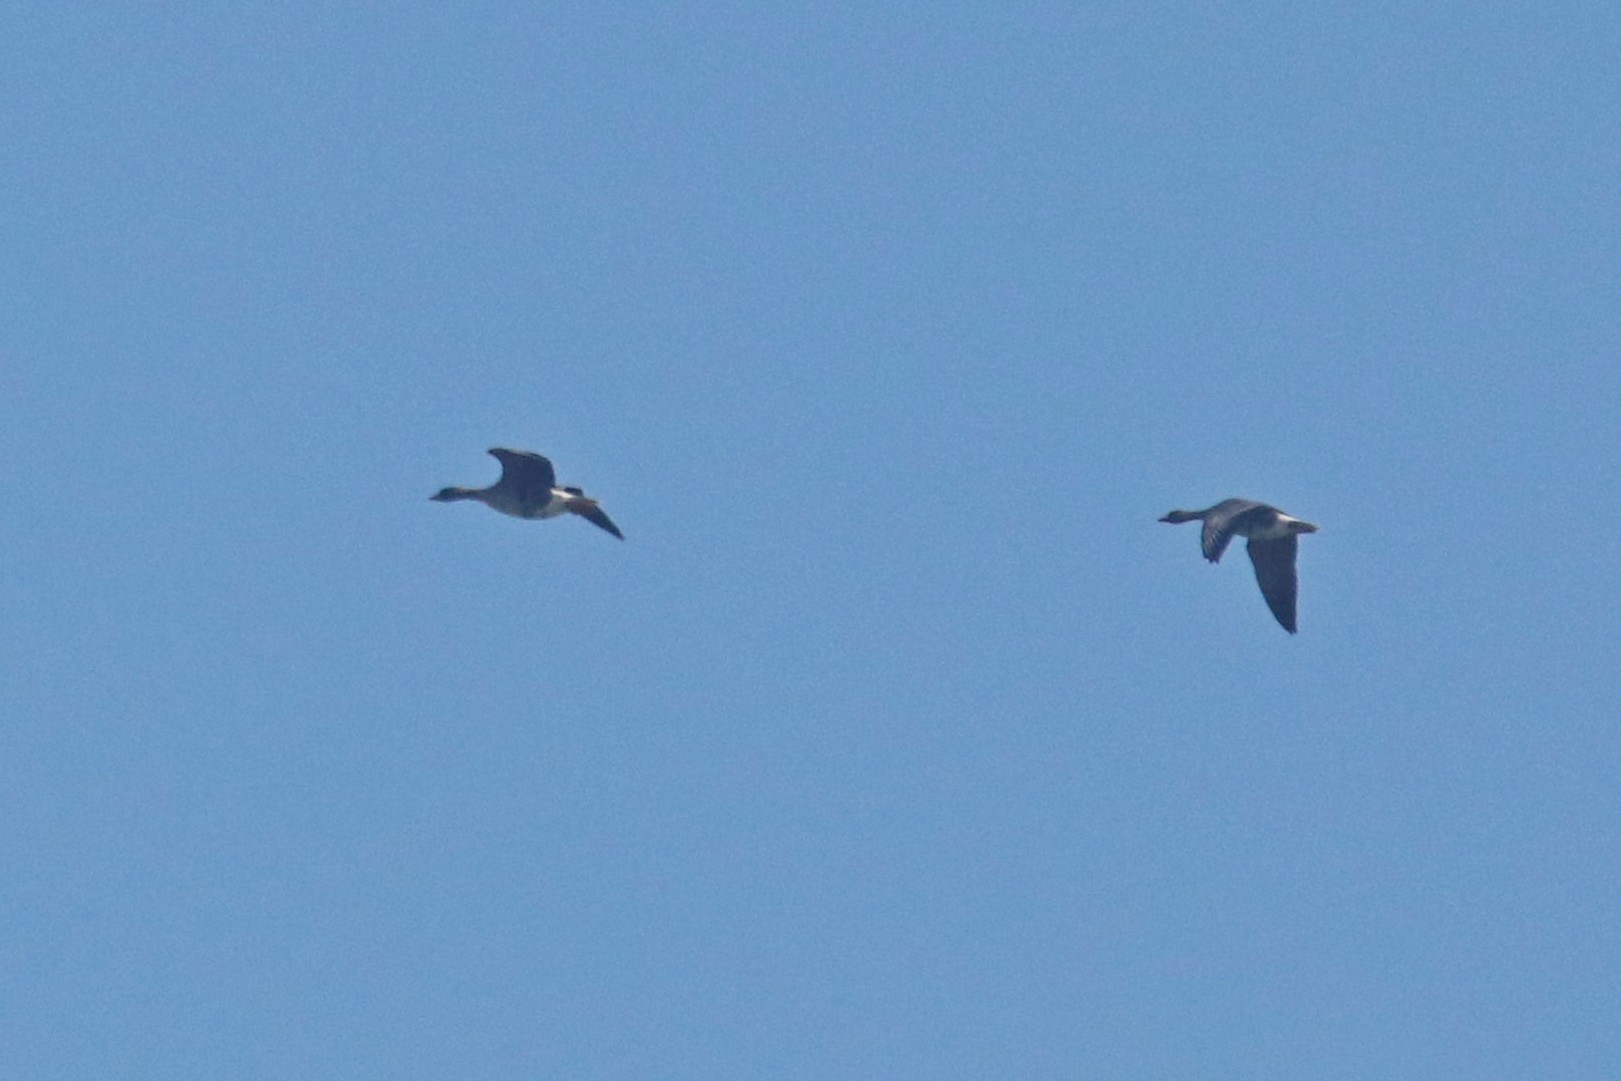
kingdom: Animalia
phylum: Chordata
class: Aves
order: Anseriformes
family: Anatidae
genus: Anser
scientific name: Anser albifrons
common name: Greater white-fronted goose
